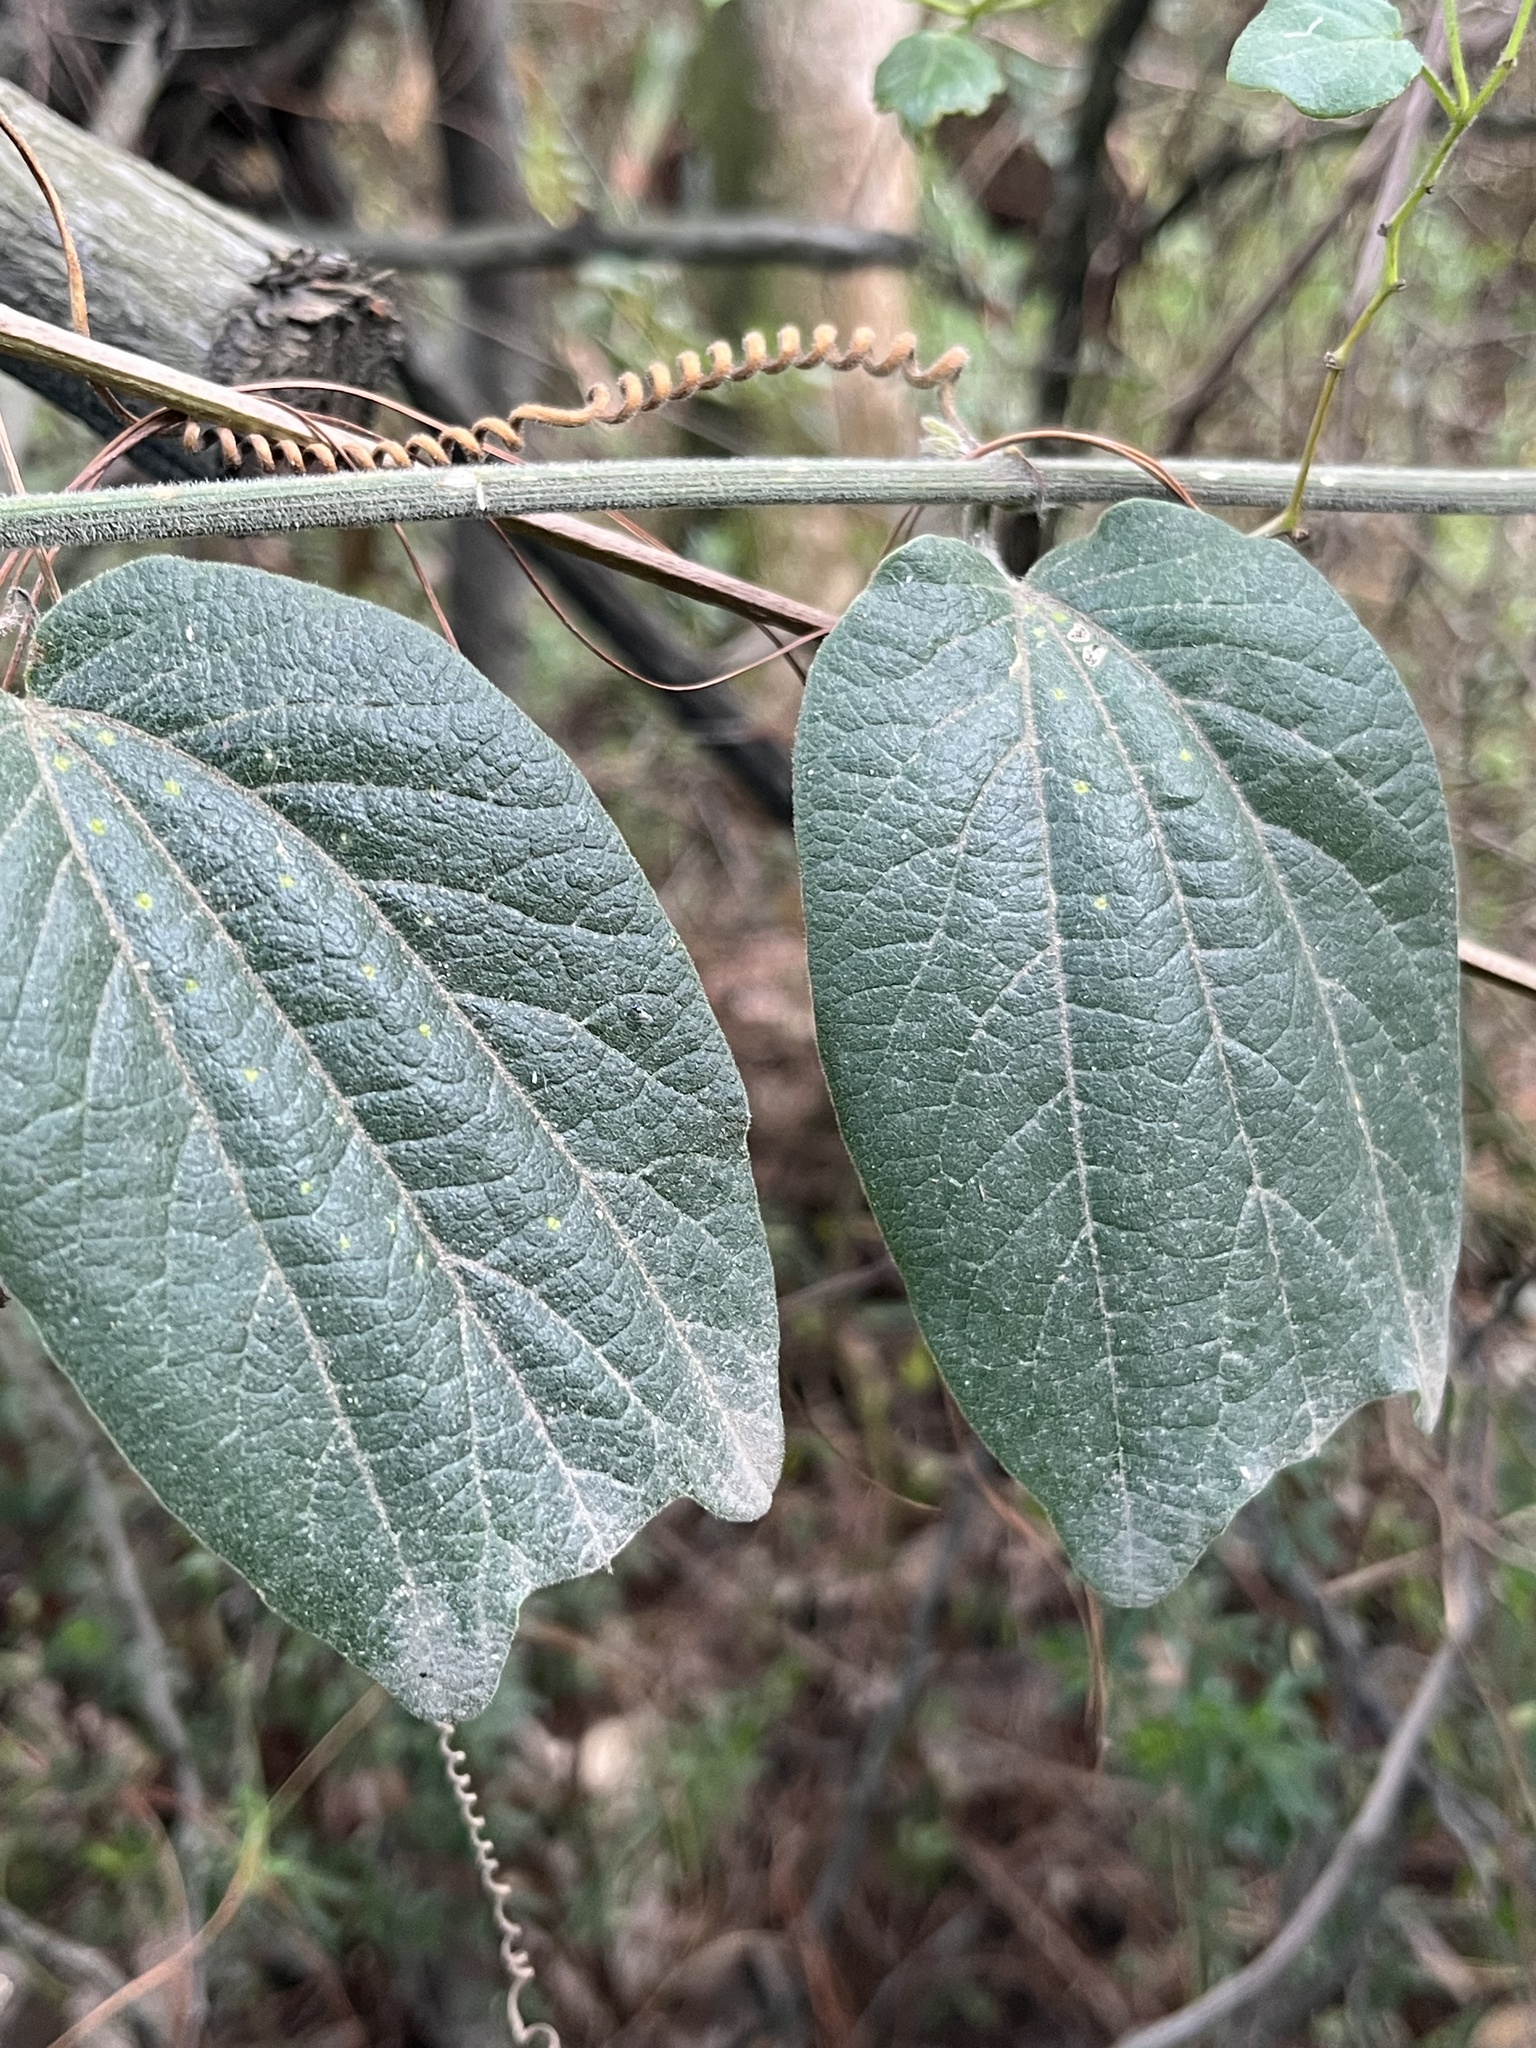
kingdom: Plantae
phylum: Tracheophyta
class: Magnoliopsida
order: Malpighiales
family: Passifloraceae
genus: Passiflora
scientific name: Passiflora bogotensis
